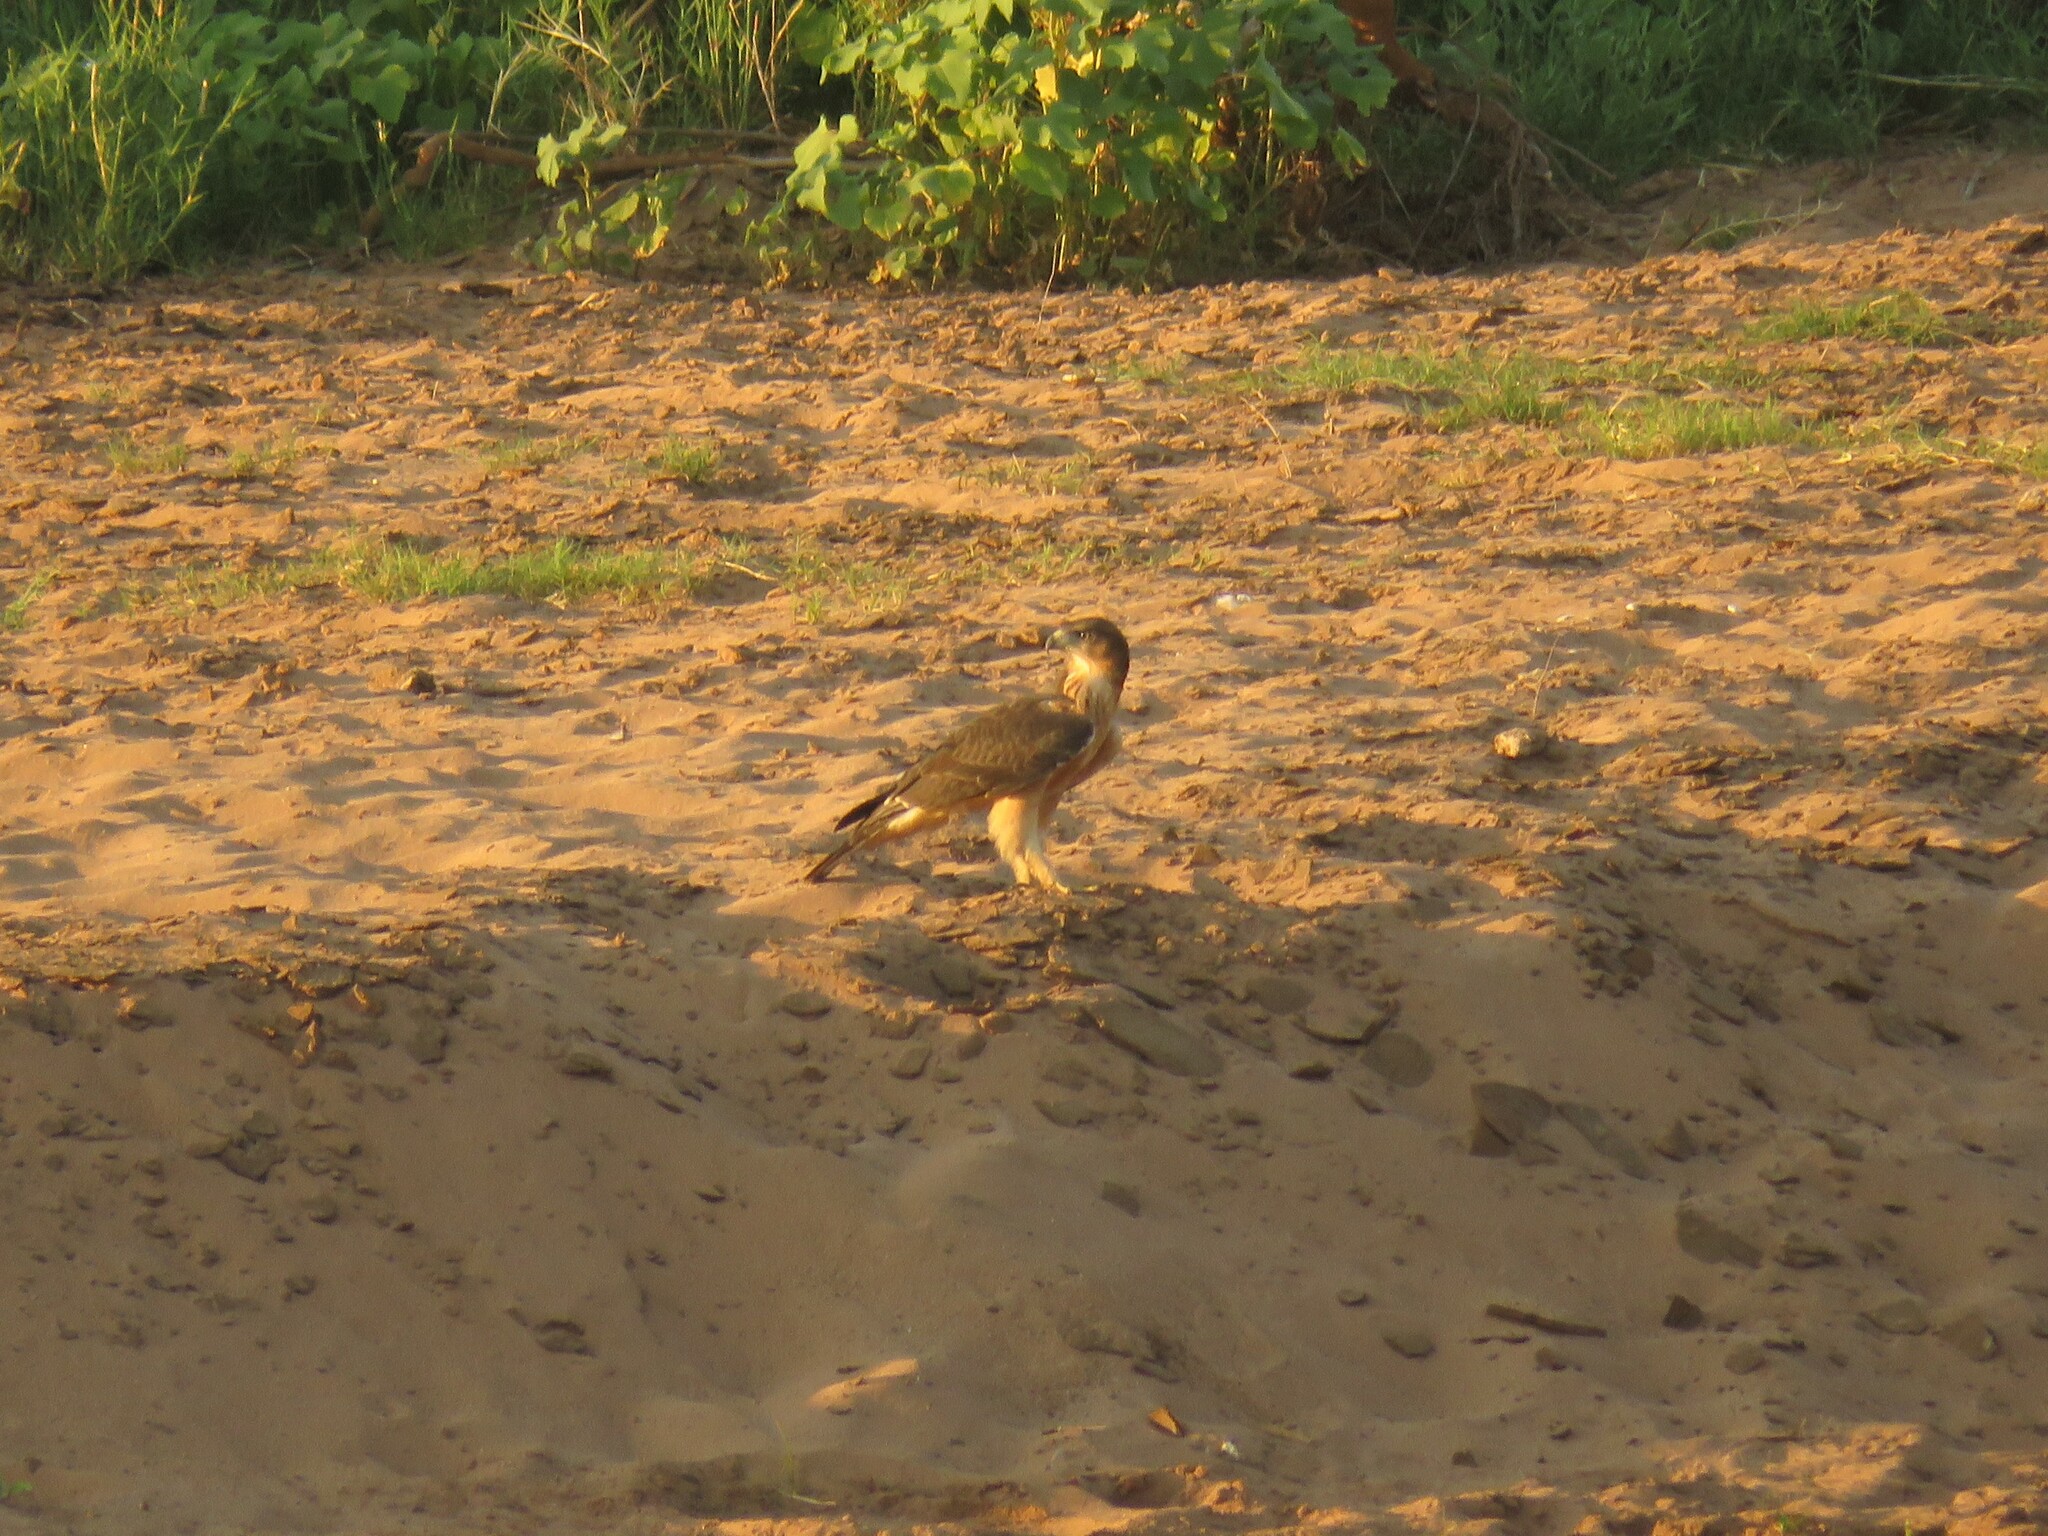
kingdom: Animalia
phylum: Chordata
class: Aves
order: Accipitriformes
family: Accipitridae
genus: Aquila
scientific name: Aquila spilogaster
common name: African hawk-eagle
